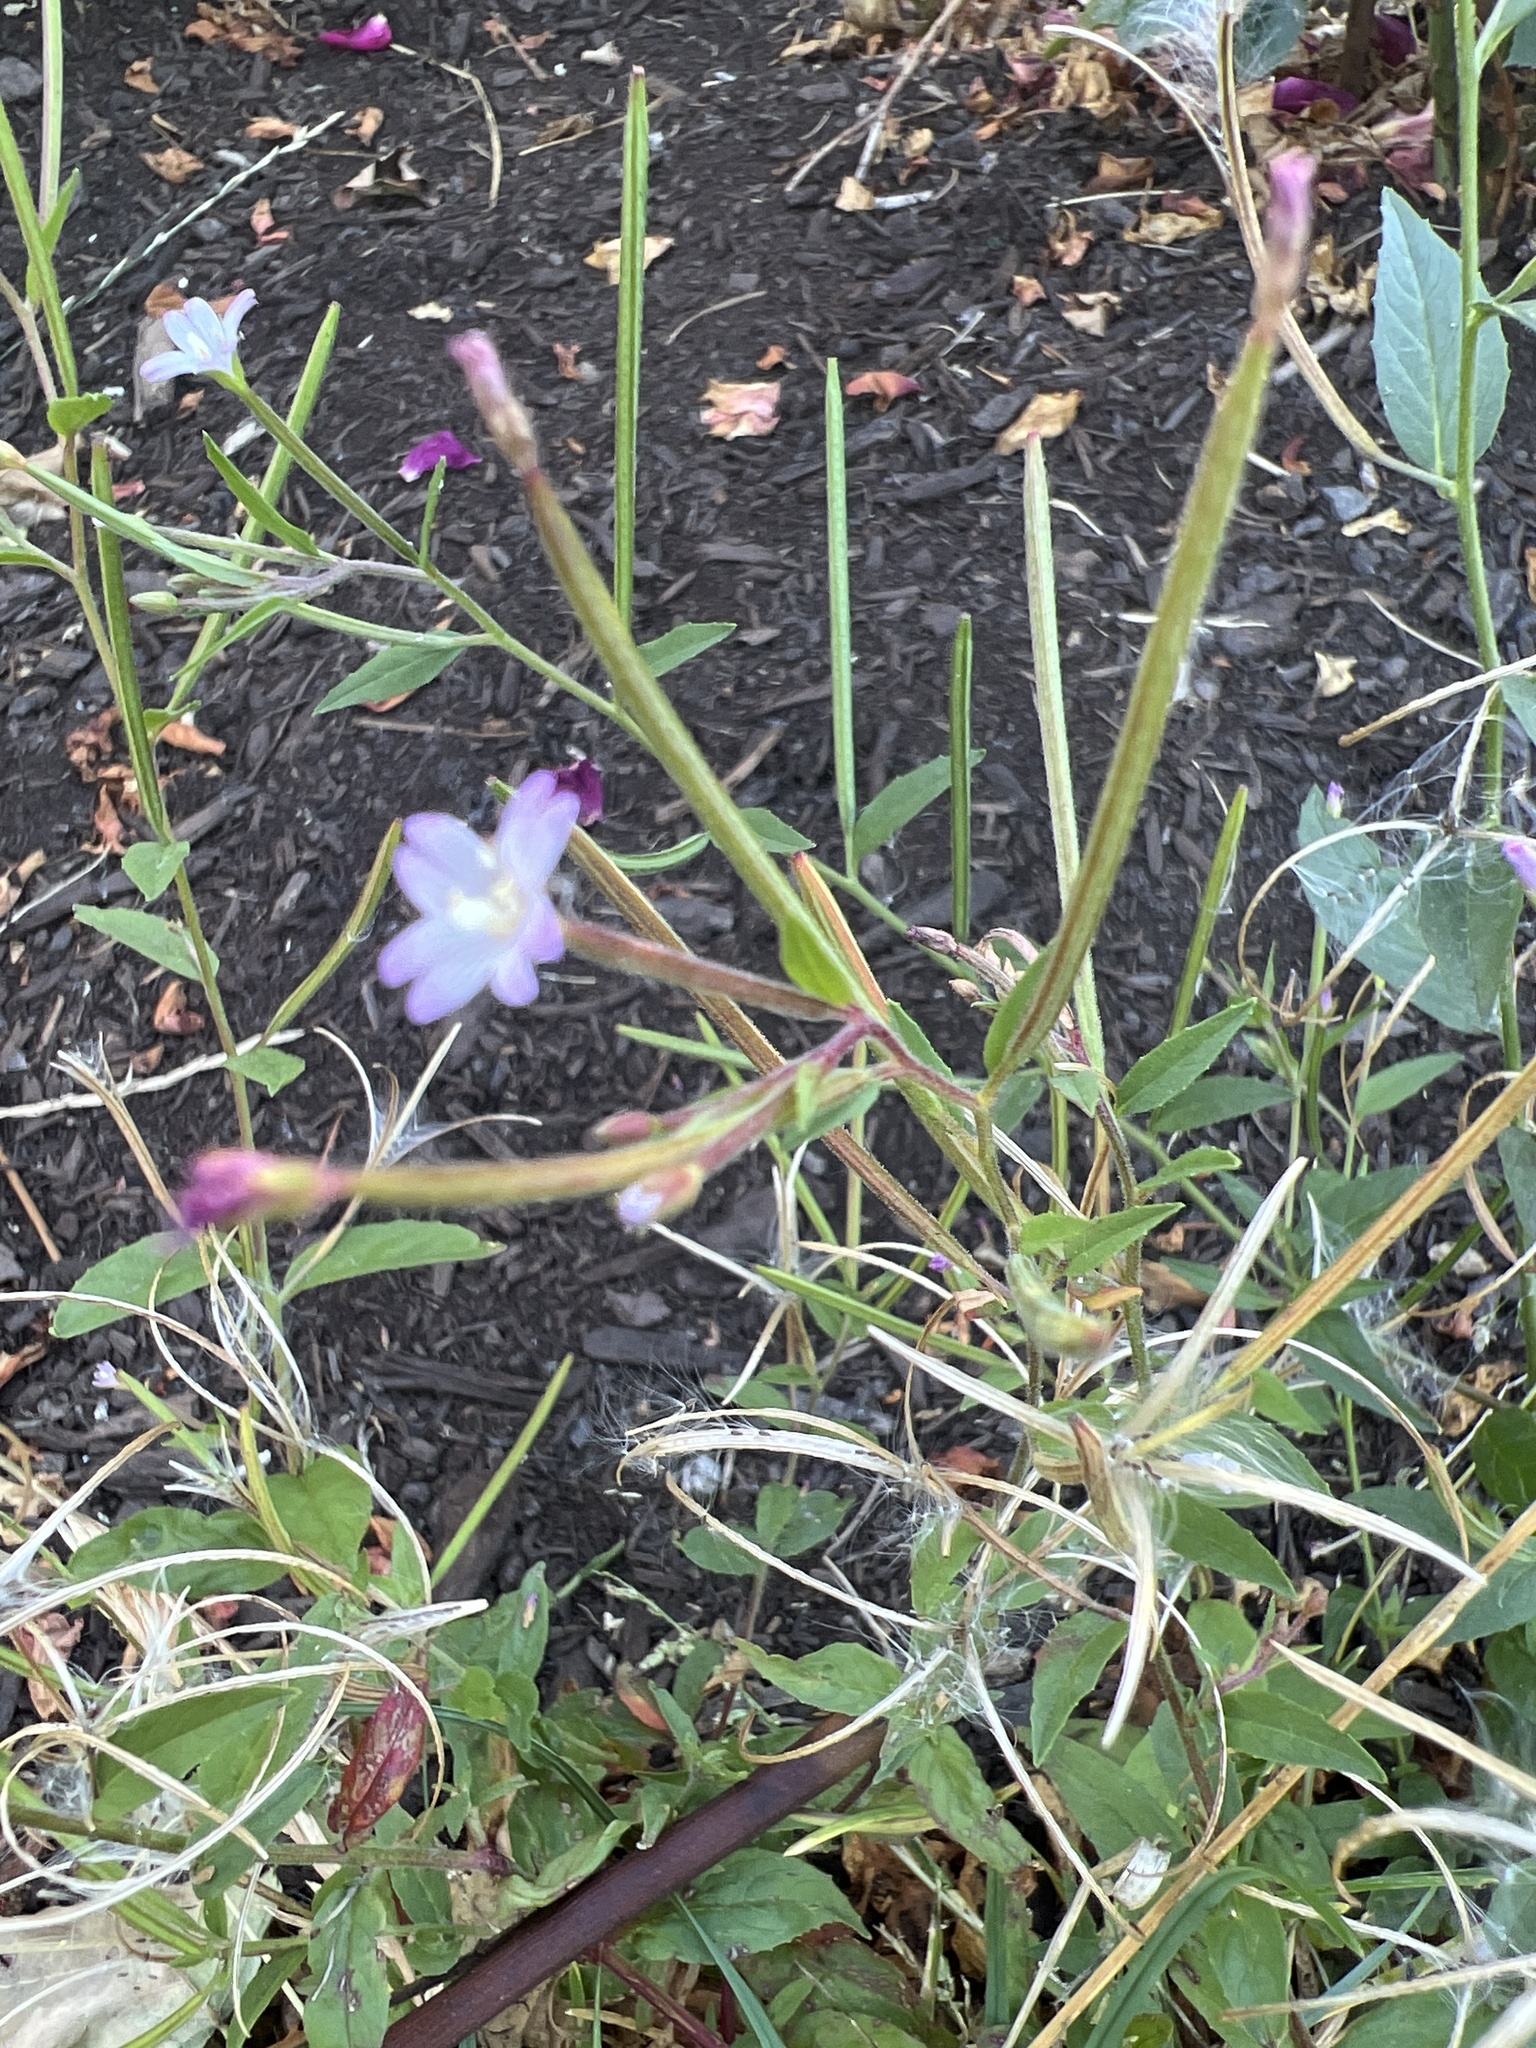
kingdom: Plantae
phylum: Tracheophyta
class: Magnoliopsida
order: Myrtales
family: Onagraceae
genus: Epilobium
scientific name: Epilobium ciliatum
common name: American willowherb
